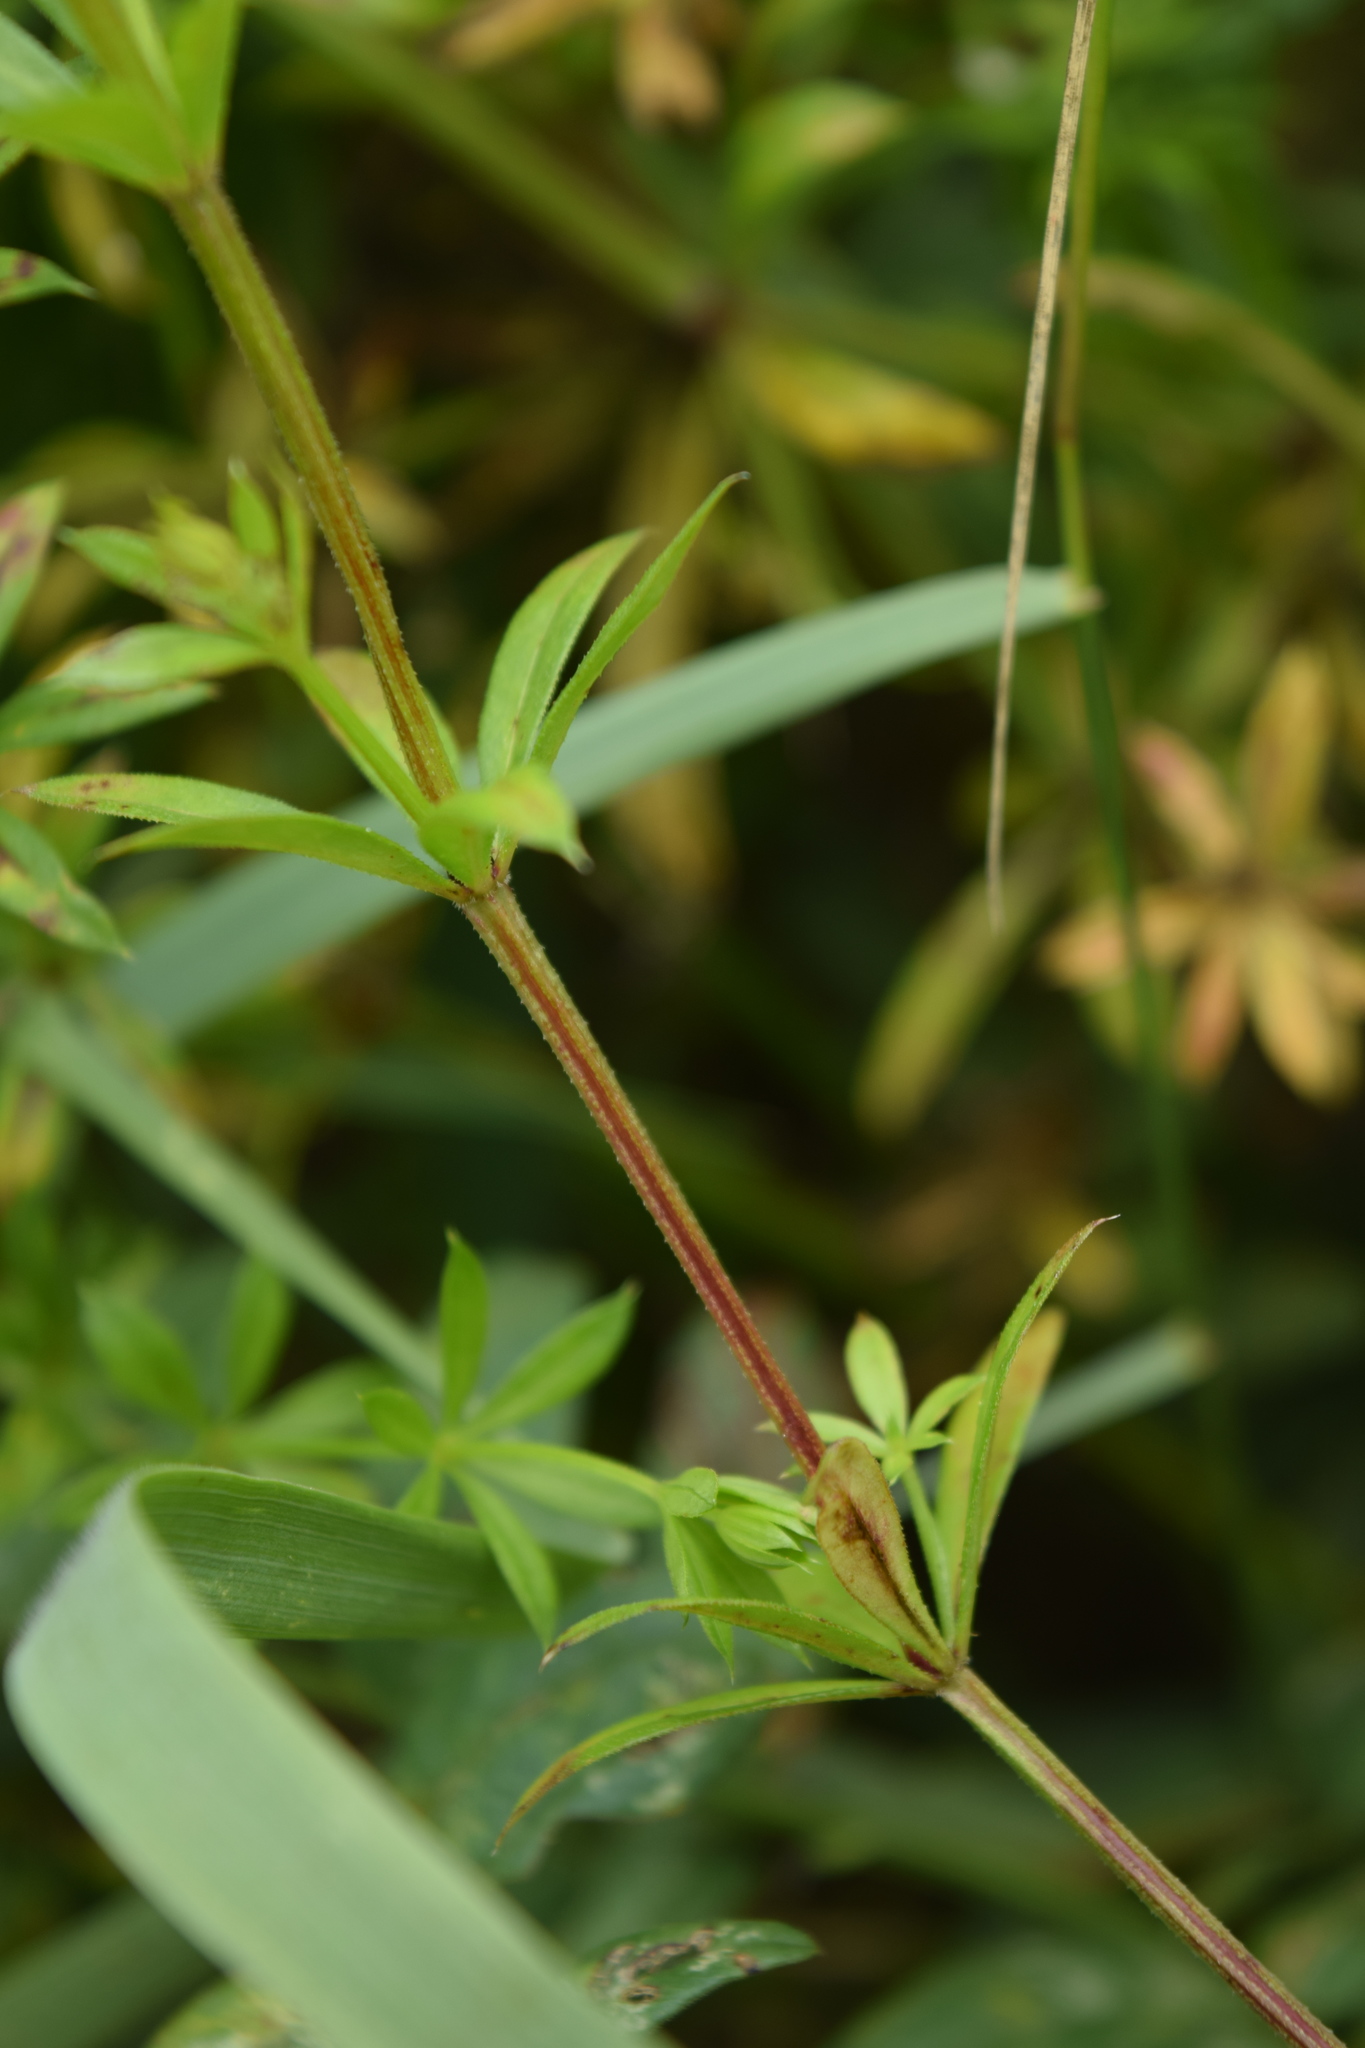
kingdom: Plantae
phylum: Tracheophyta
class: Magnoliopsida
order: Gentianales
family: Rubiaceae
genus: Galium
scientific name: Galium rivale
